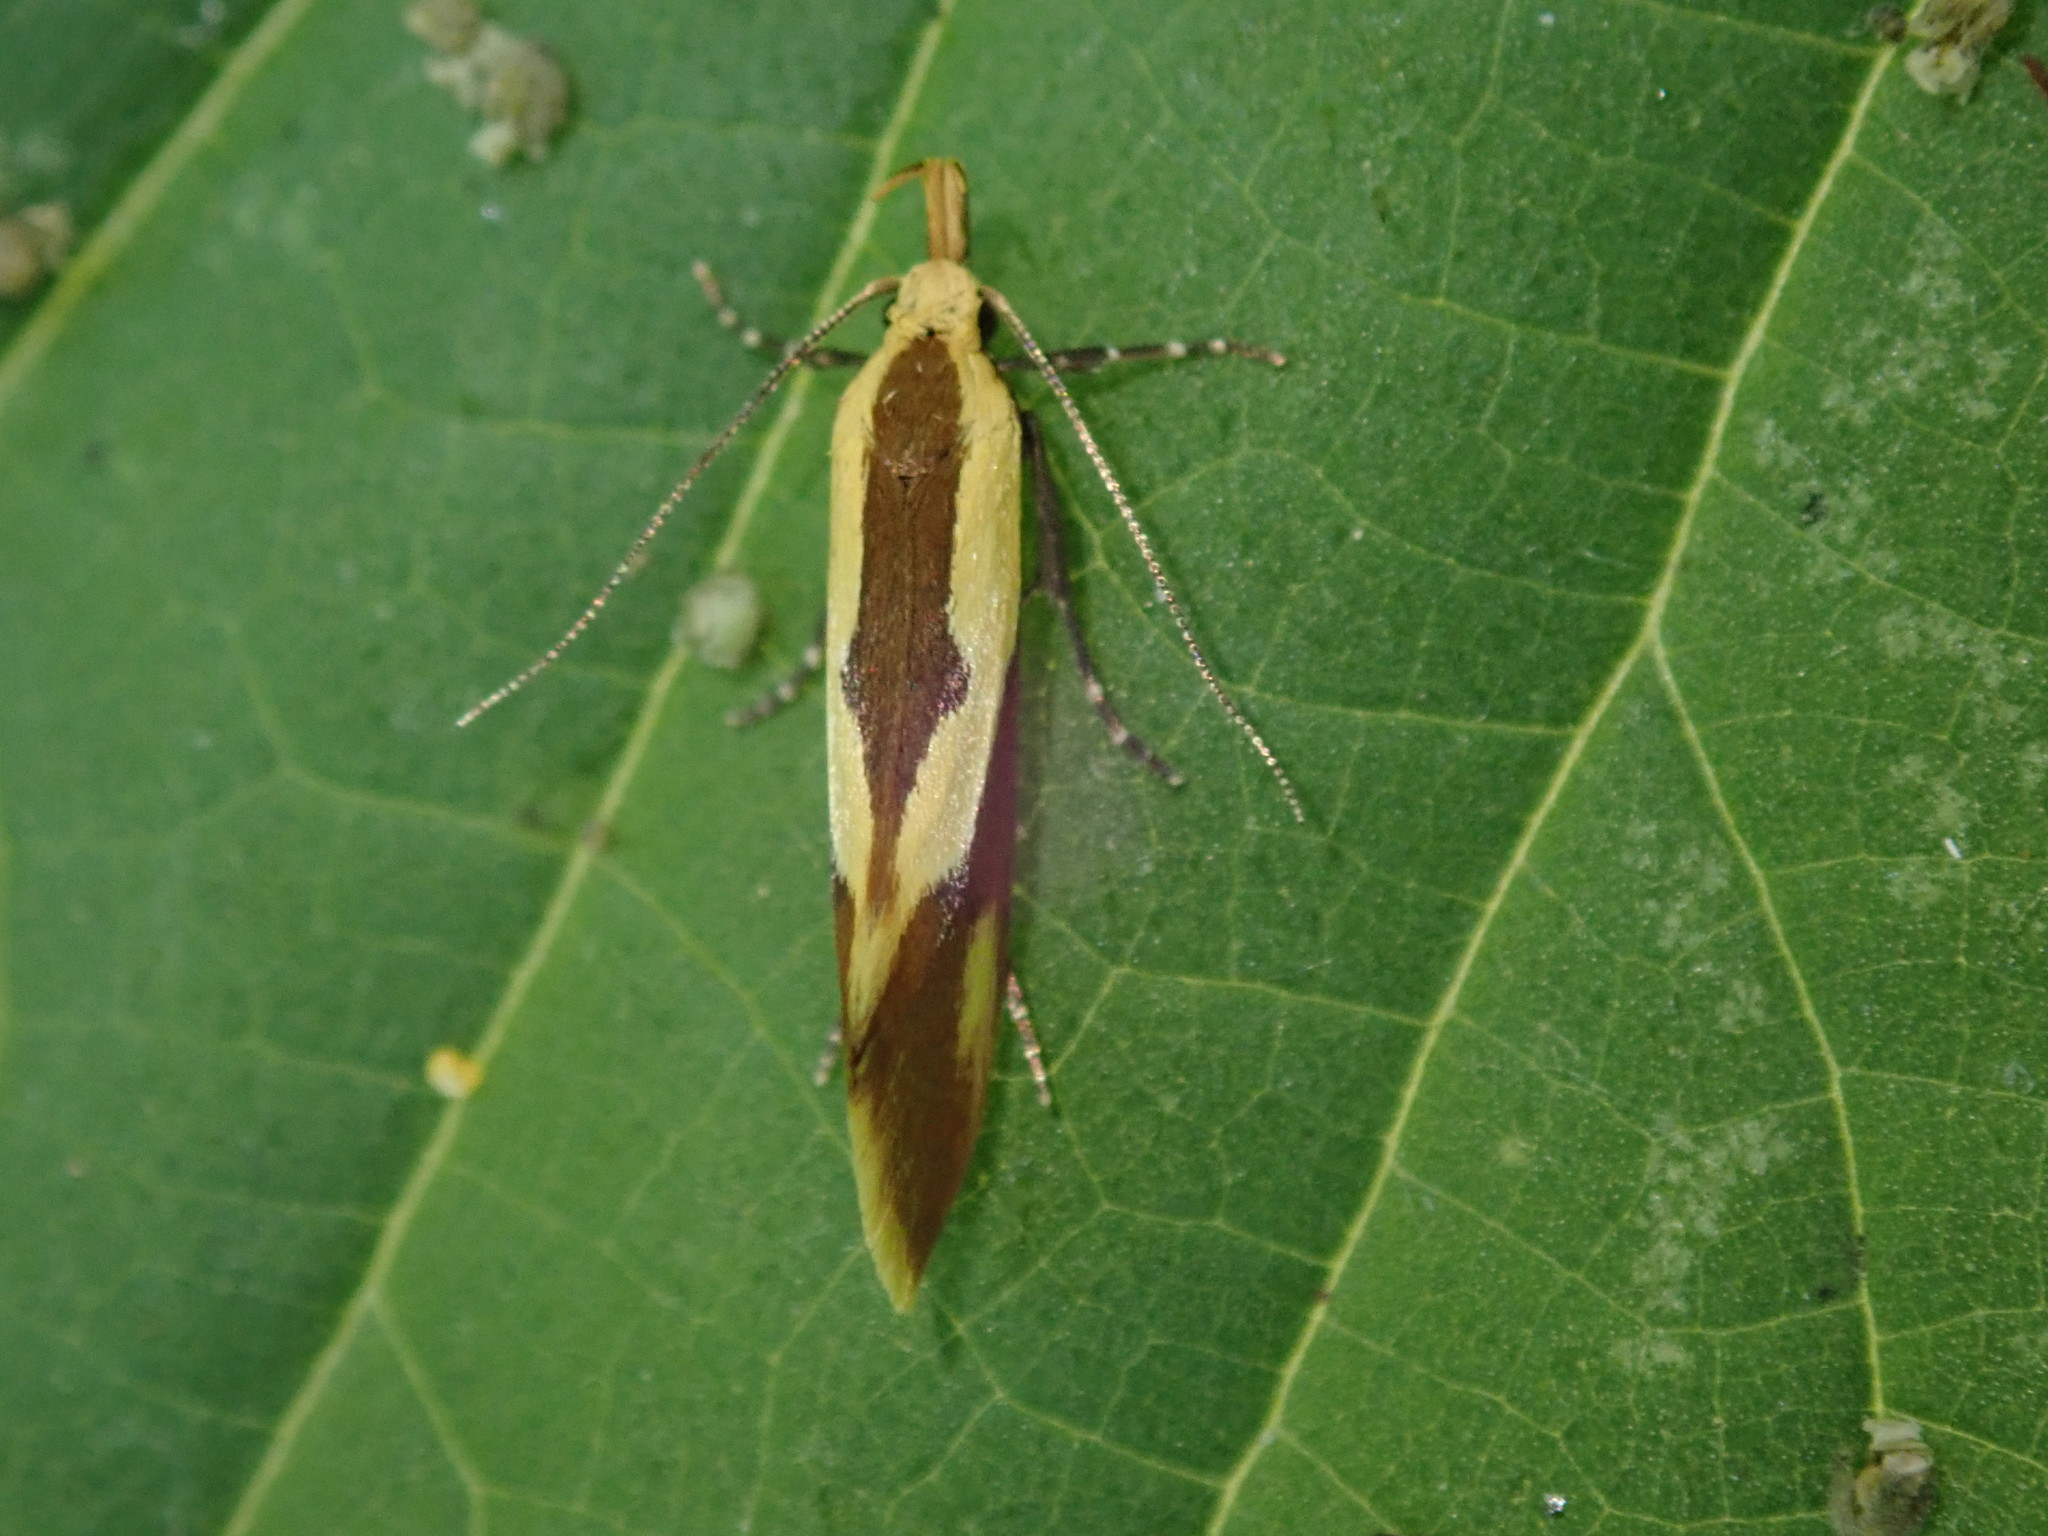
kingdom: Animalia
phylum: Arthropoda
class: Insecta
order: Lepidoptera
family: Oecophoridae
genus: Harpella
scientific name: Harpella forficella
